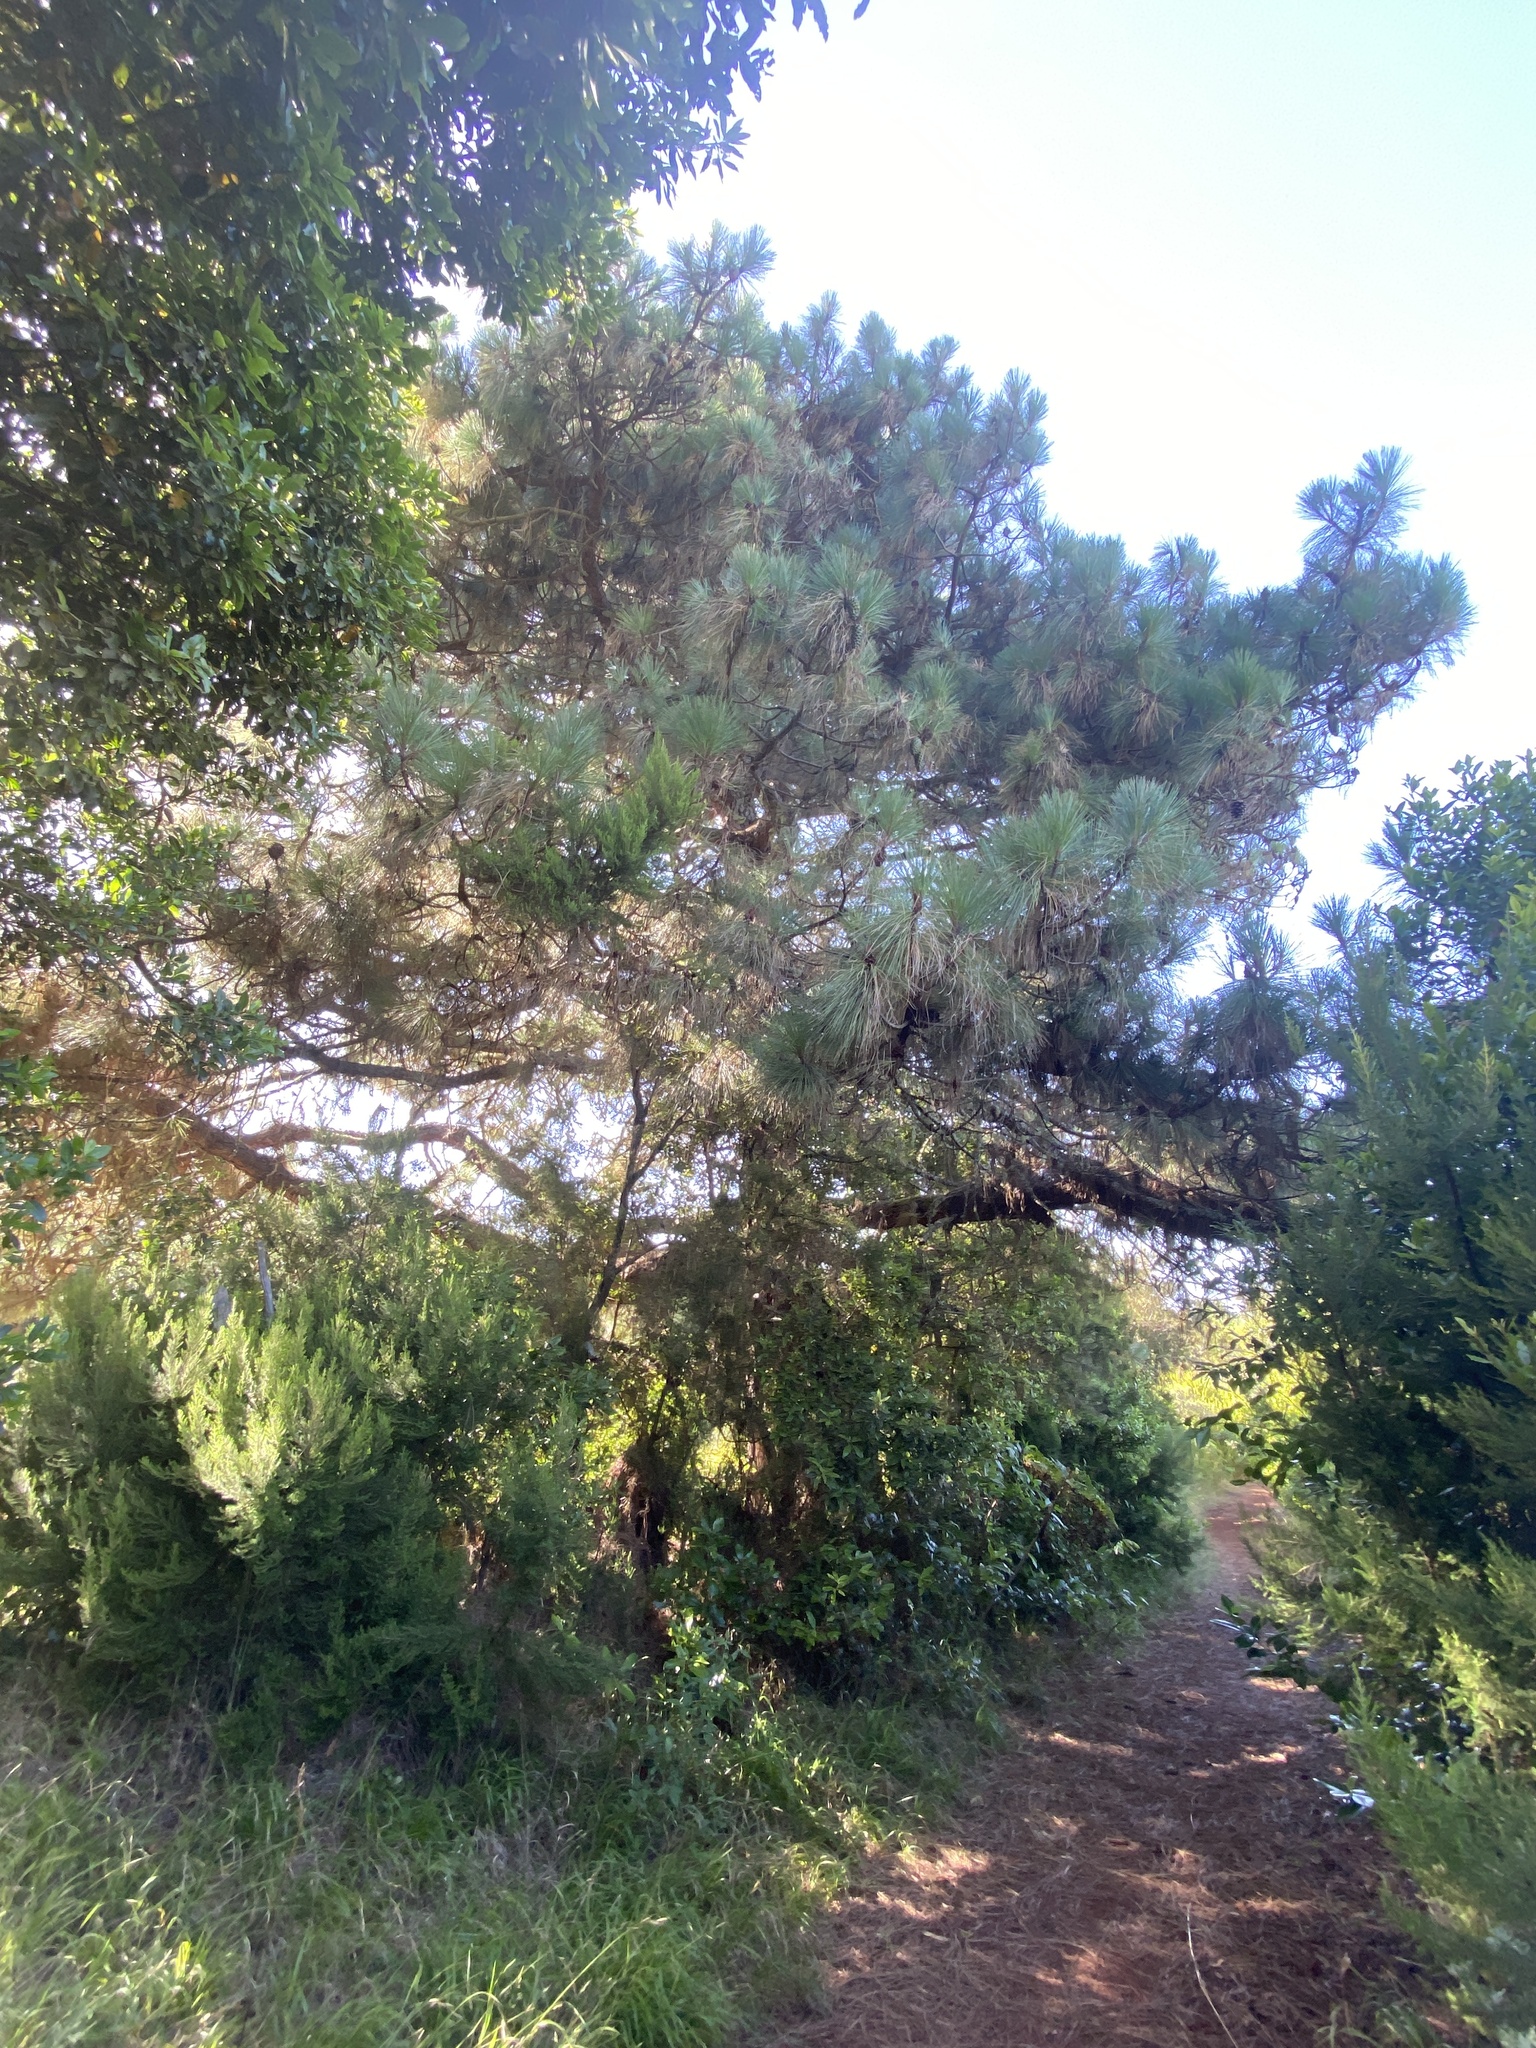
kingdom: Plantae
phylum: Tracheophyta
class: Pinopsida
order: Pinales
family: Pinaceae
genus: Pinus
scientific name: Pinus canariensis
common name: Canary islands pine
